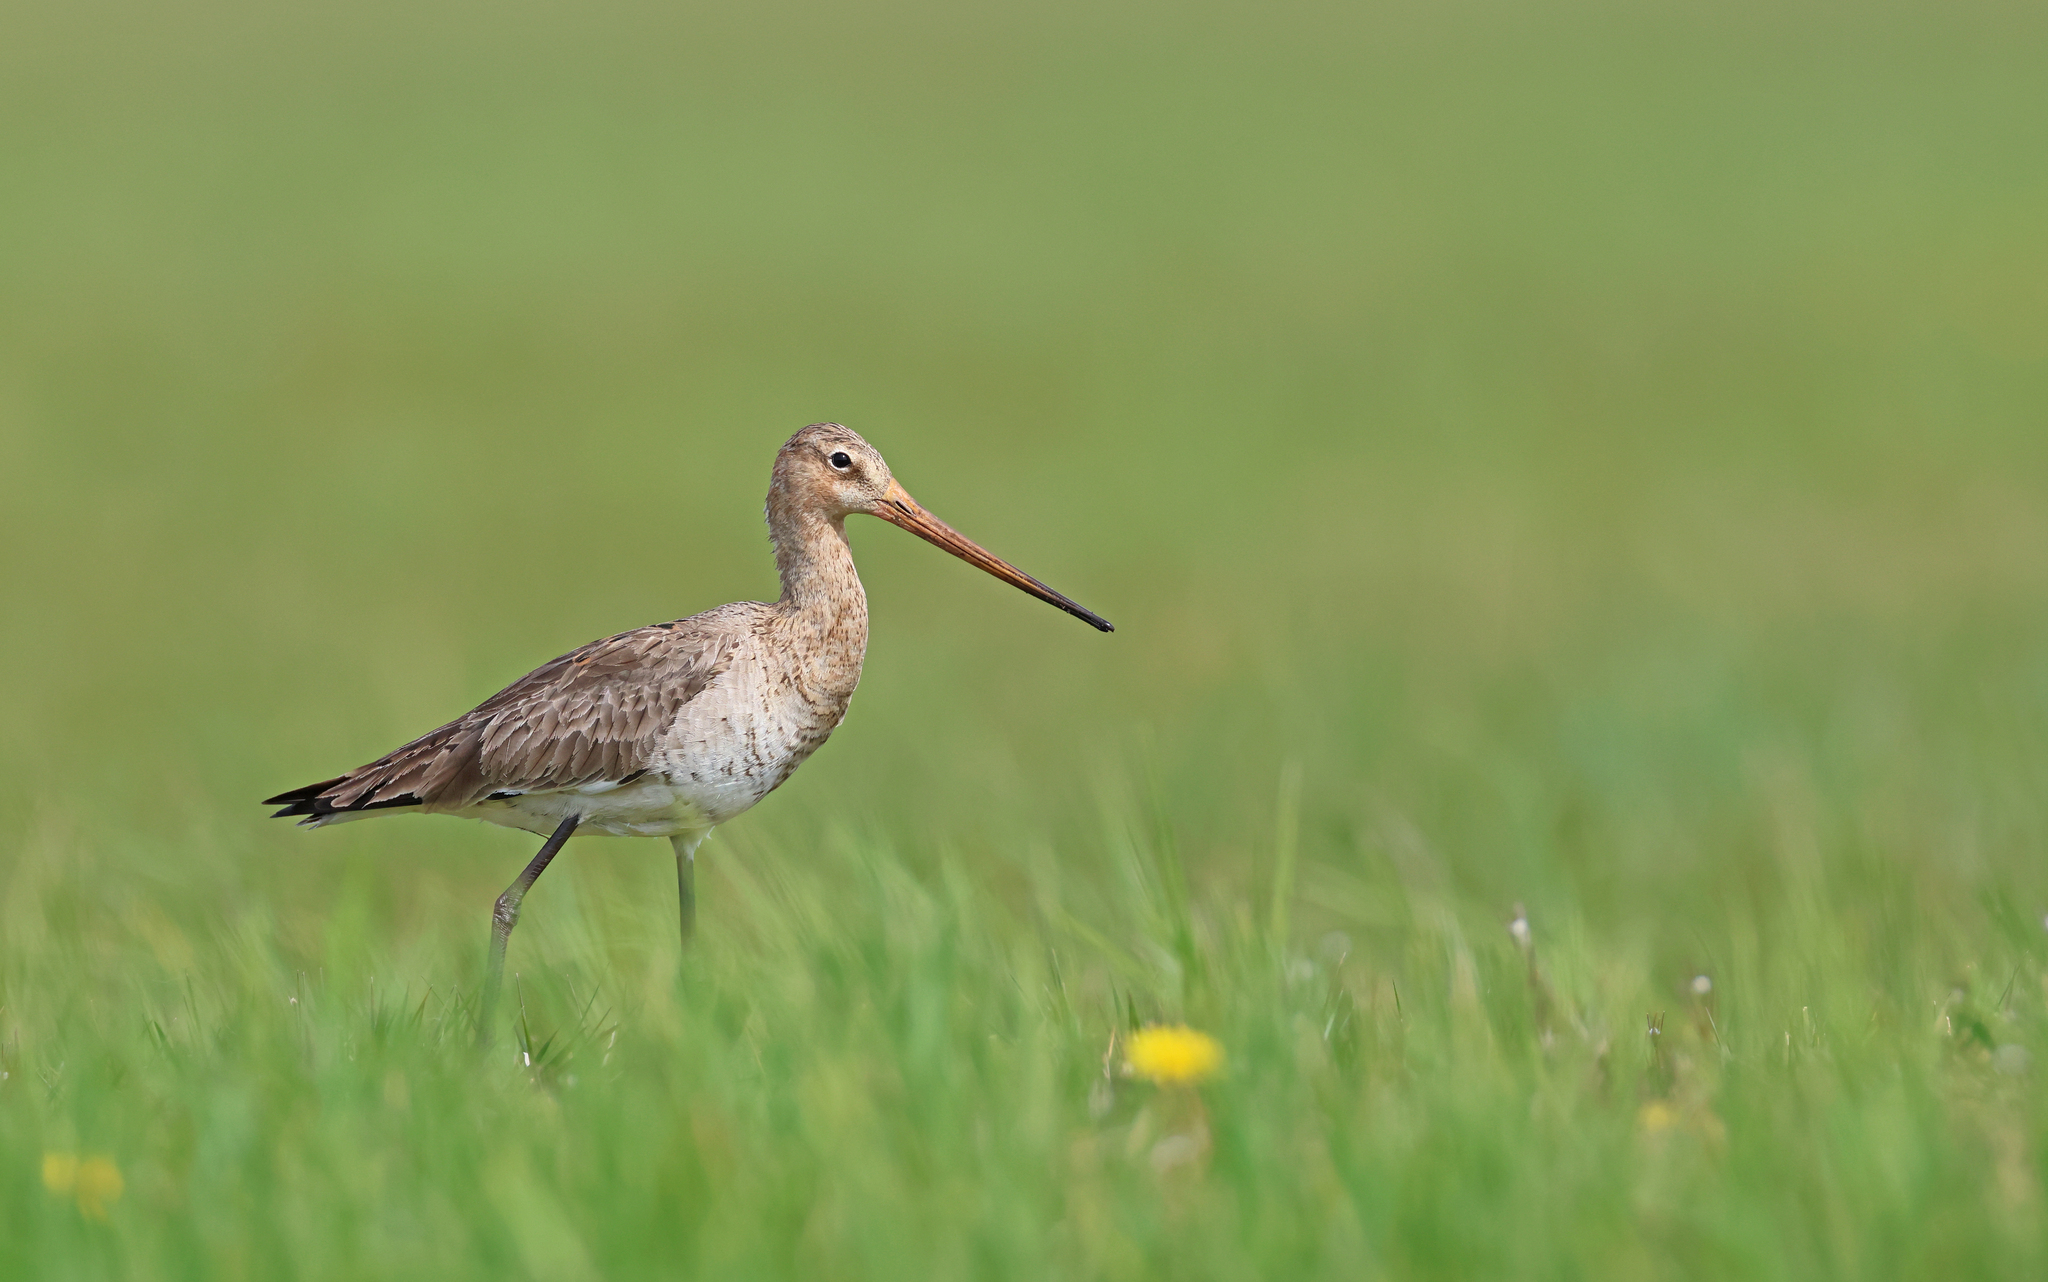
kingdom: Animalia
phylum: Chordata
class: Aves
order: Charadriiformes
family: Scolopacidae
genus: Limosa
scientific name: Limosa limosa
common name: Black-tailed godwit
